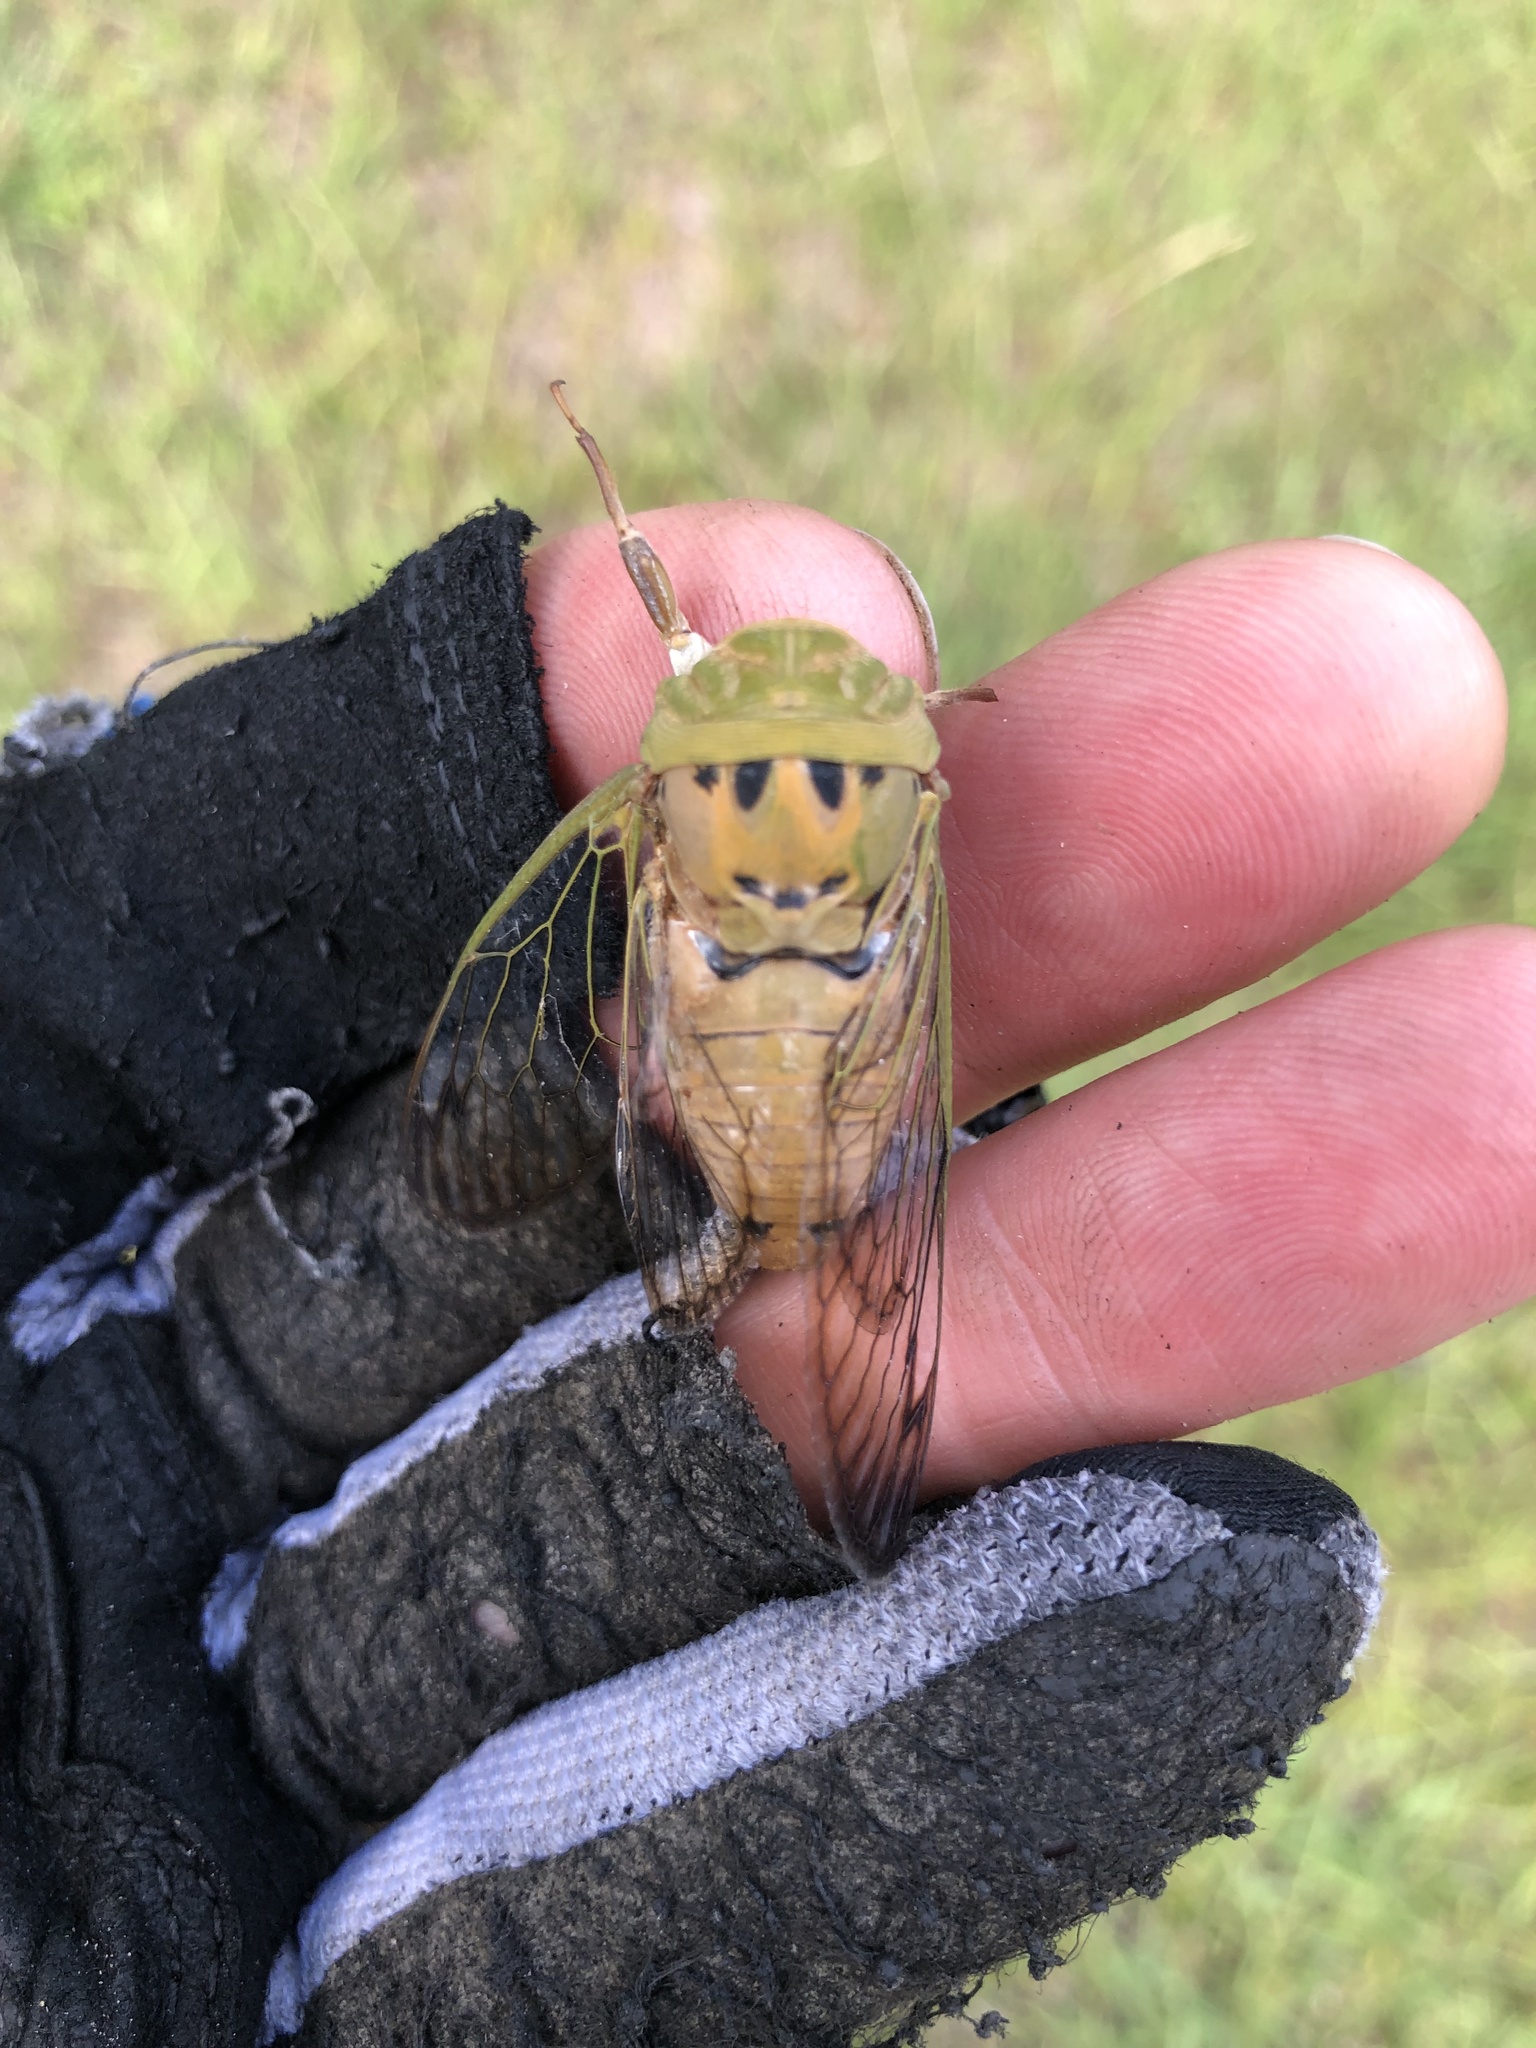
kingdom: Animalia
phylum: Arthropoda
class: Insecta
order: Hemiptera
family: Cicadidae
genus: Neotibicen
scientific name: Neotibicen superbus
